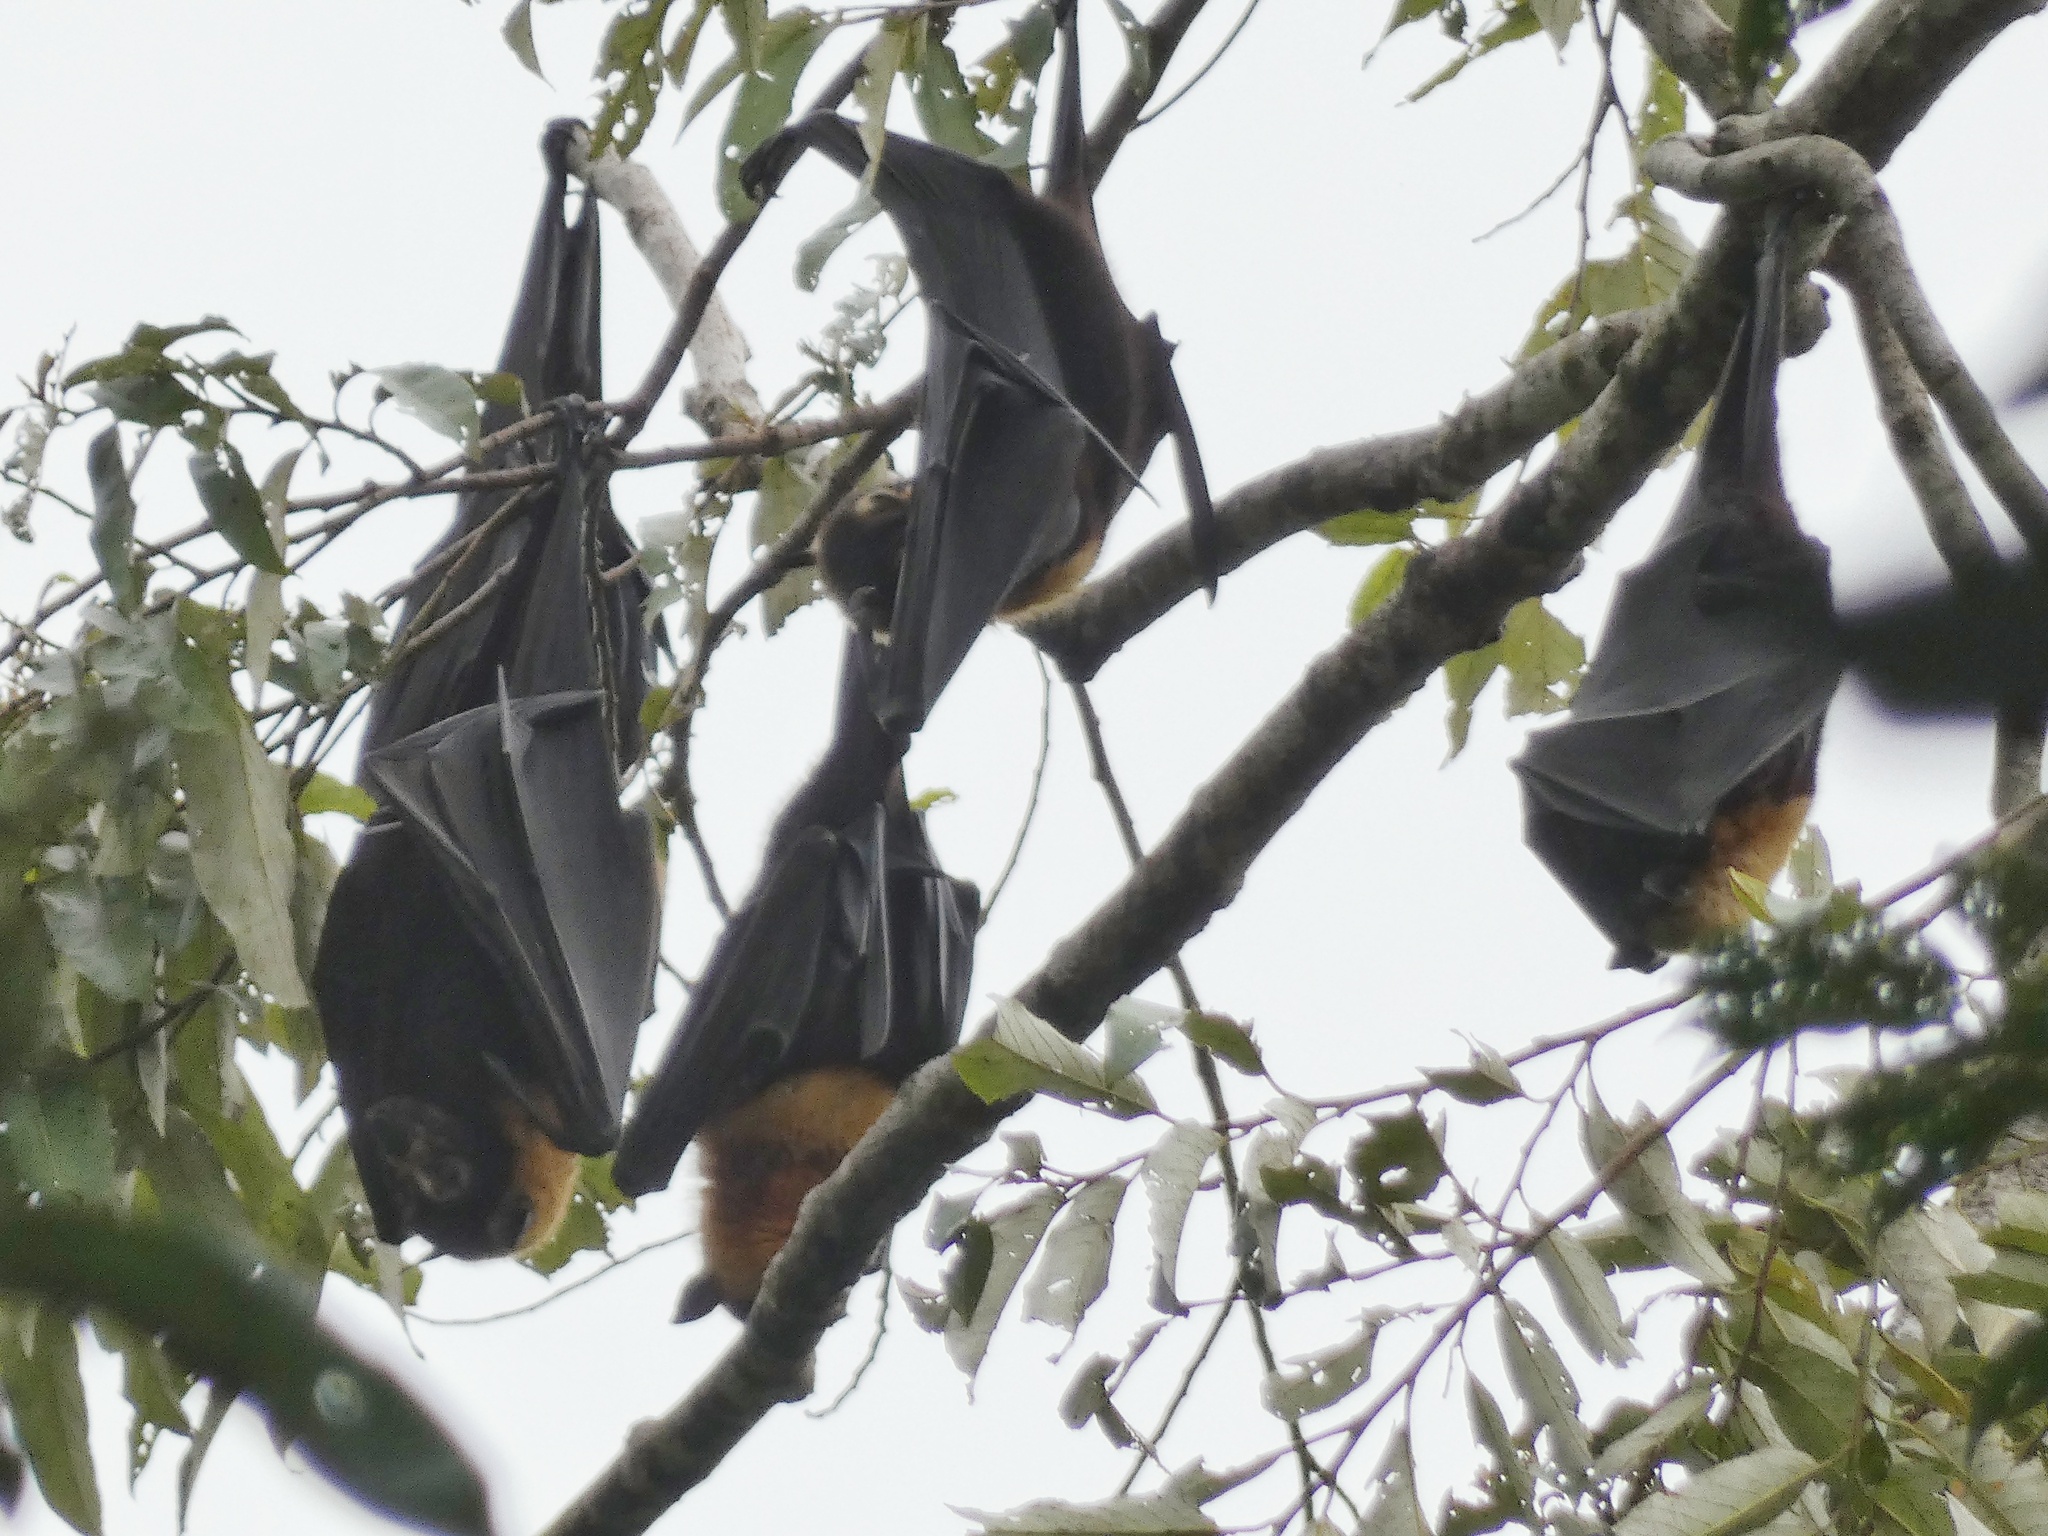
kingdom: Animalia
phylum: Chordata
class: Mammalia
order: Chiroptera
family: Pteropodidae
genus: Pteropus
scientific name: Pteropus conspicillatus
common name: Spectacled flying fox
